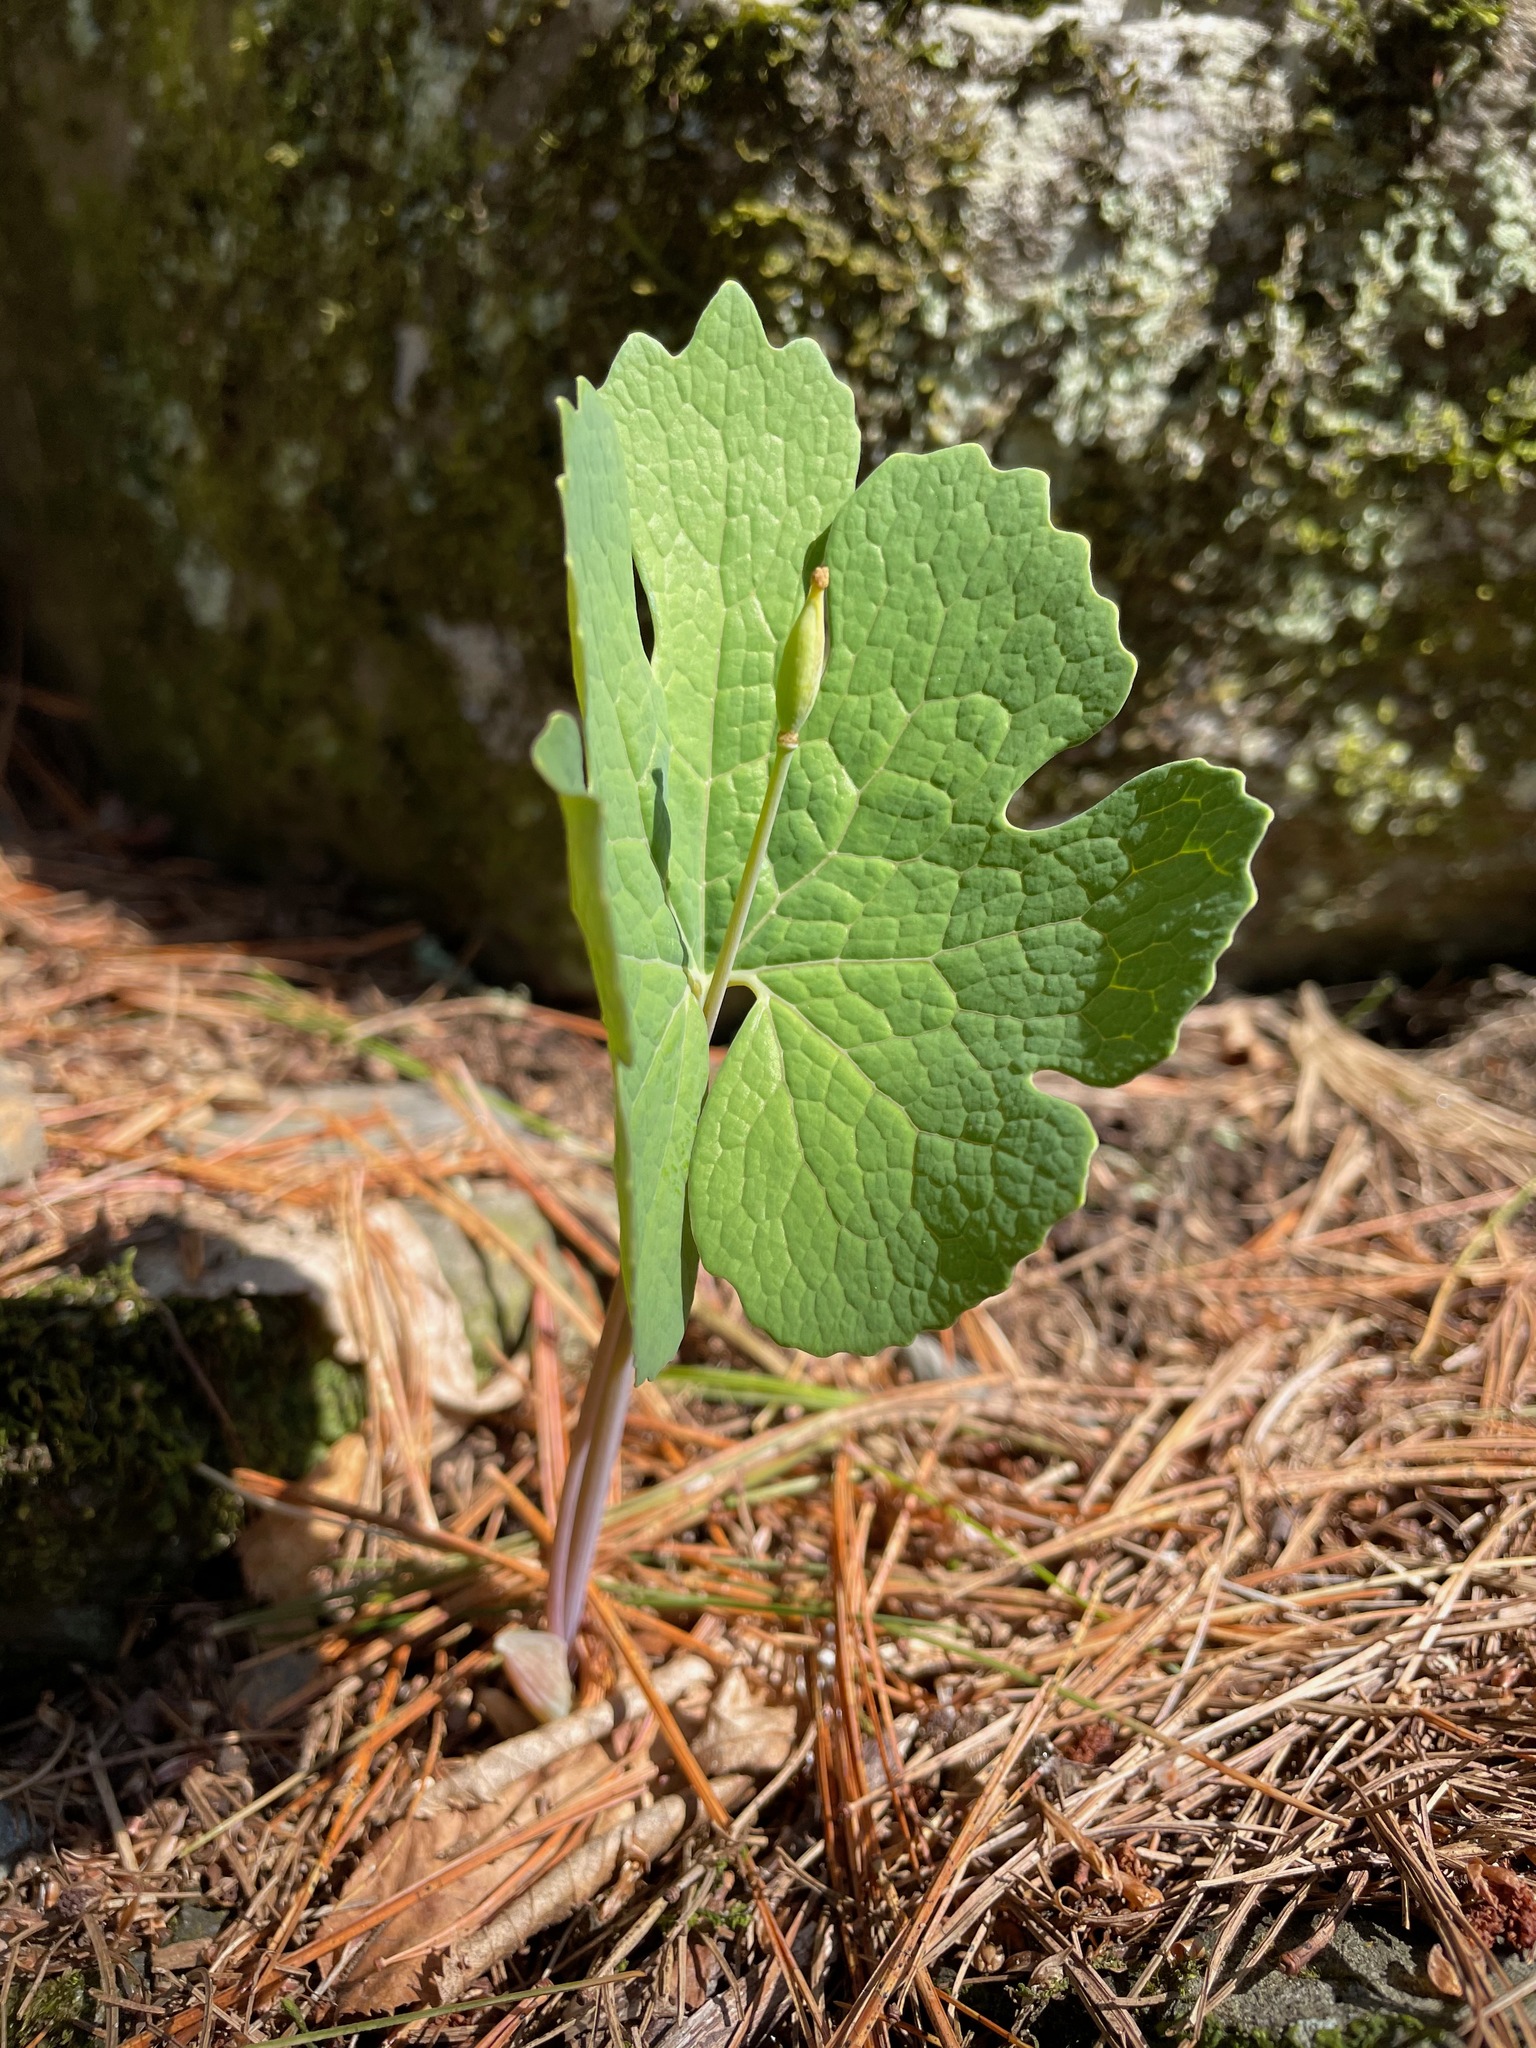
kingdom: Plantae
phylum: Tracheophyta
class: Magnoliopsida
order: Ranunculales
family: Papaveraceae
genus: Sanguinaria
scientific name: Sanguinaria canadensis
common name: Bloodroot
